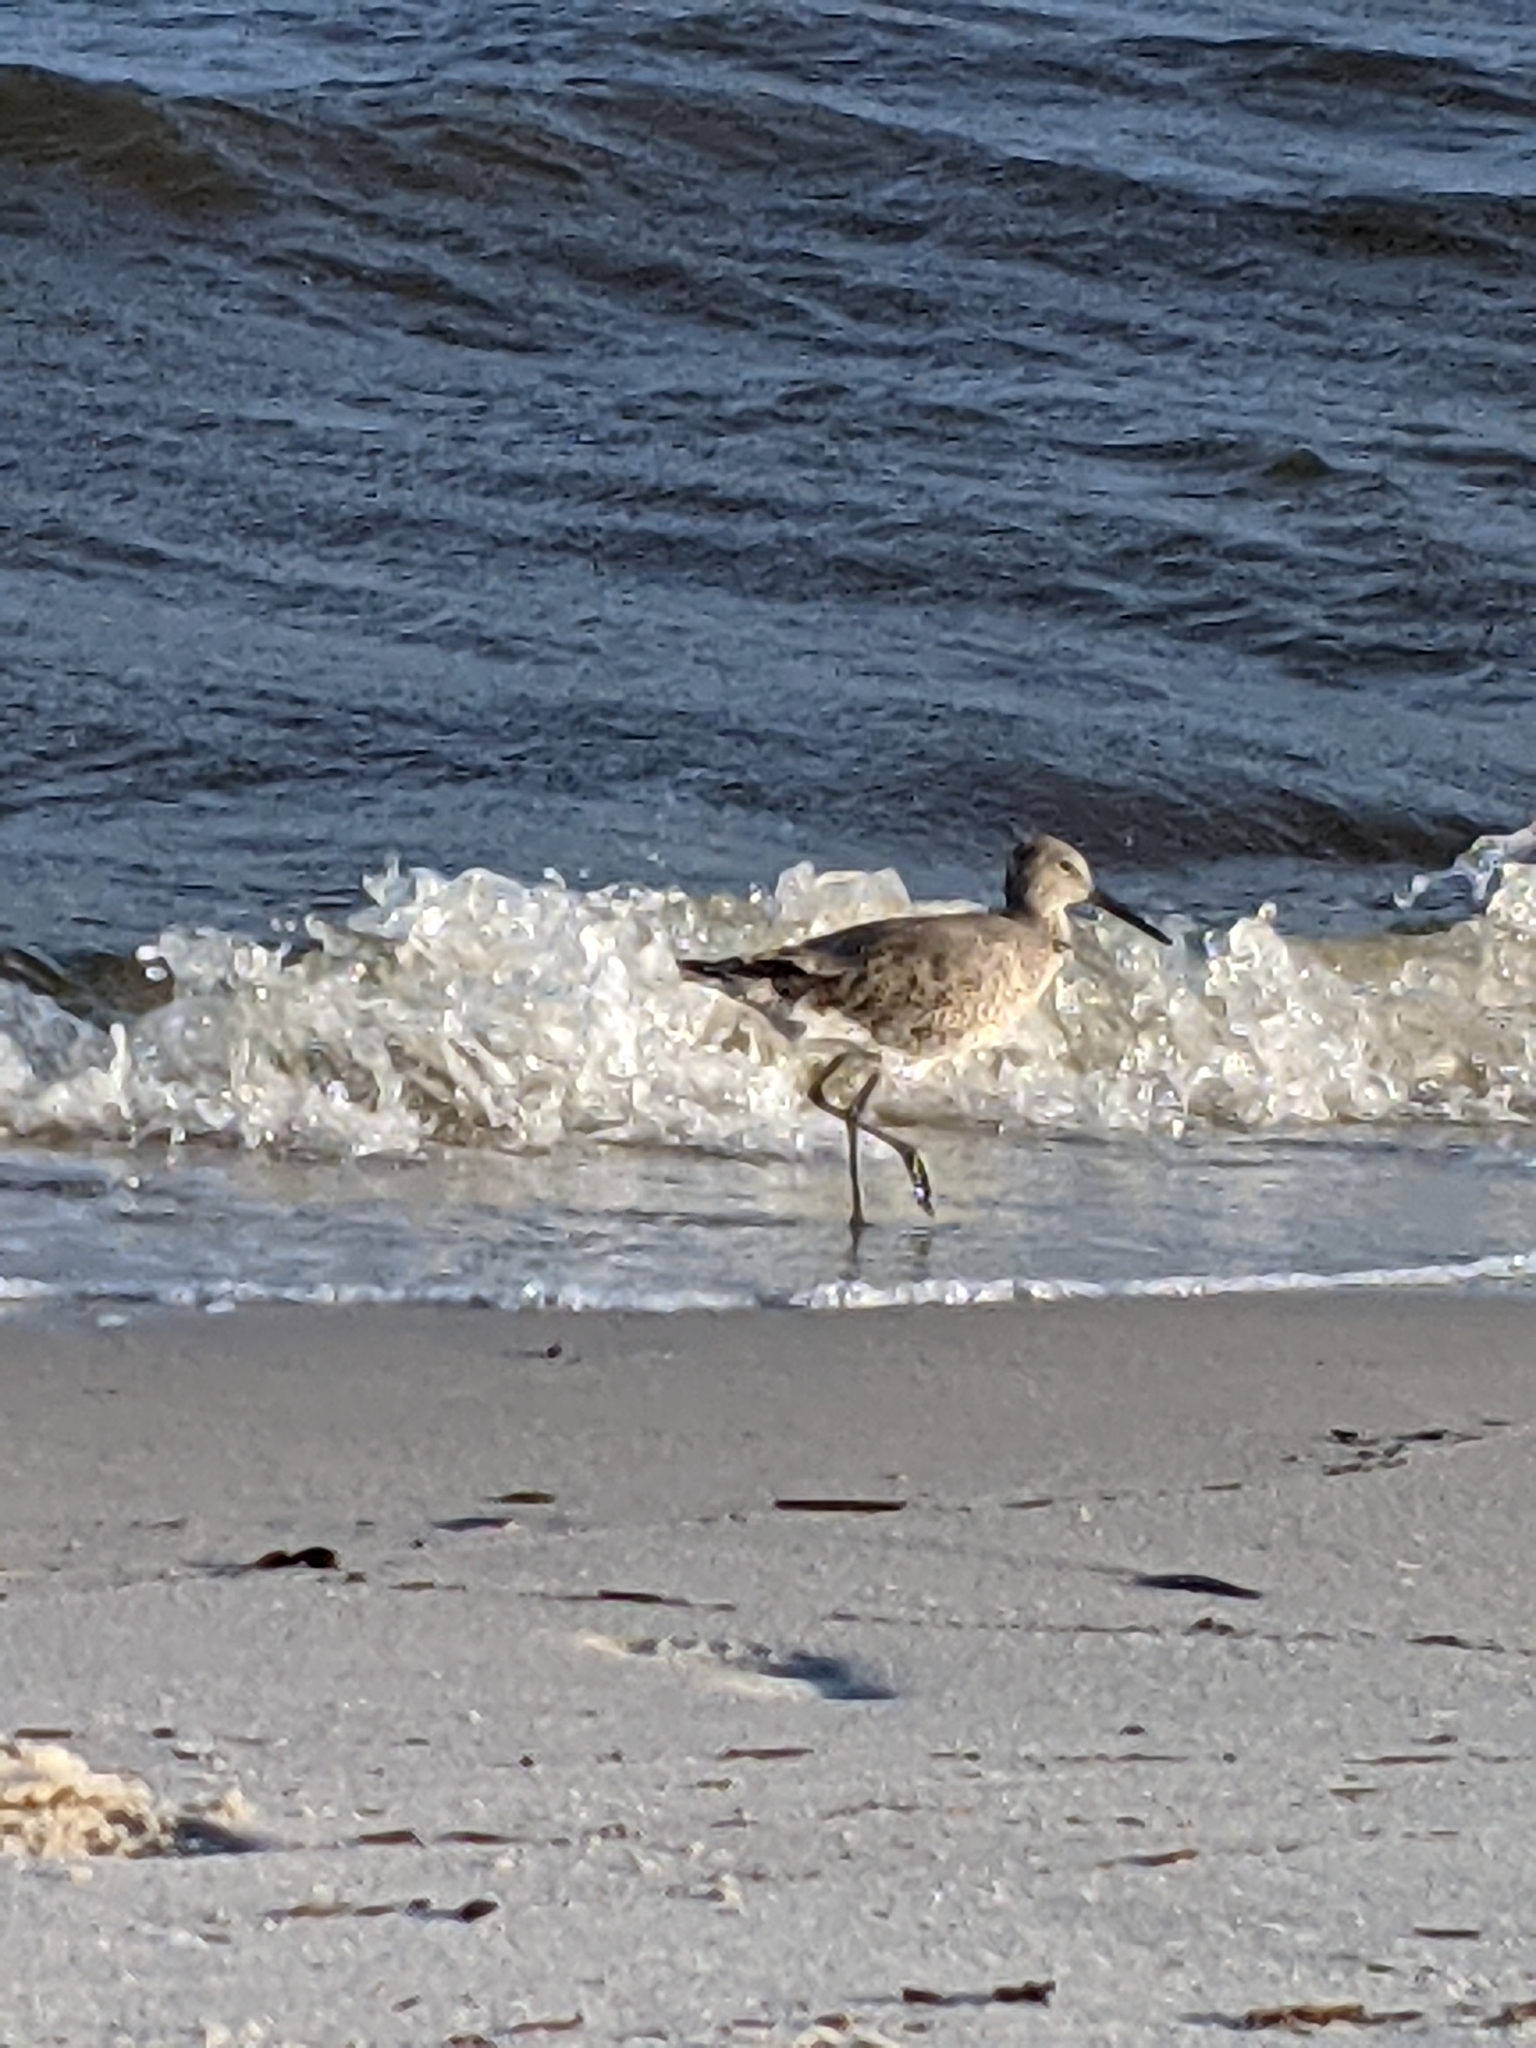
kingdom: Animalia
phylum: Chordata
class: Aves
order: Charadriiformes
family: Scolopacidae
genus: Tringa
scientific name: Tringa semipalmata
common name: Willet
